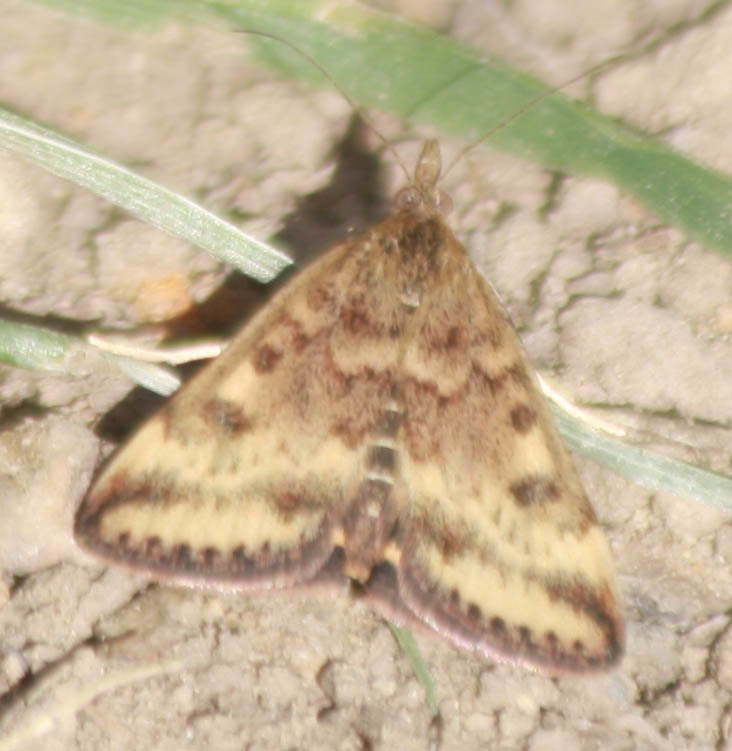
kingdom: Animalia
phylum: Arthropoda
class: Insecta
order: Lepidoptera
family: Crambidae
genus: Pyrausta
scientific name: Pyrausta subsequalis
